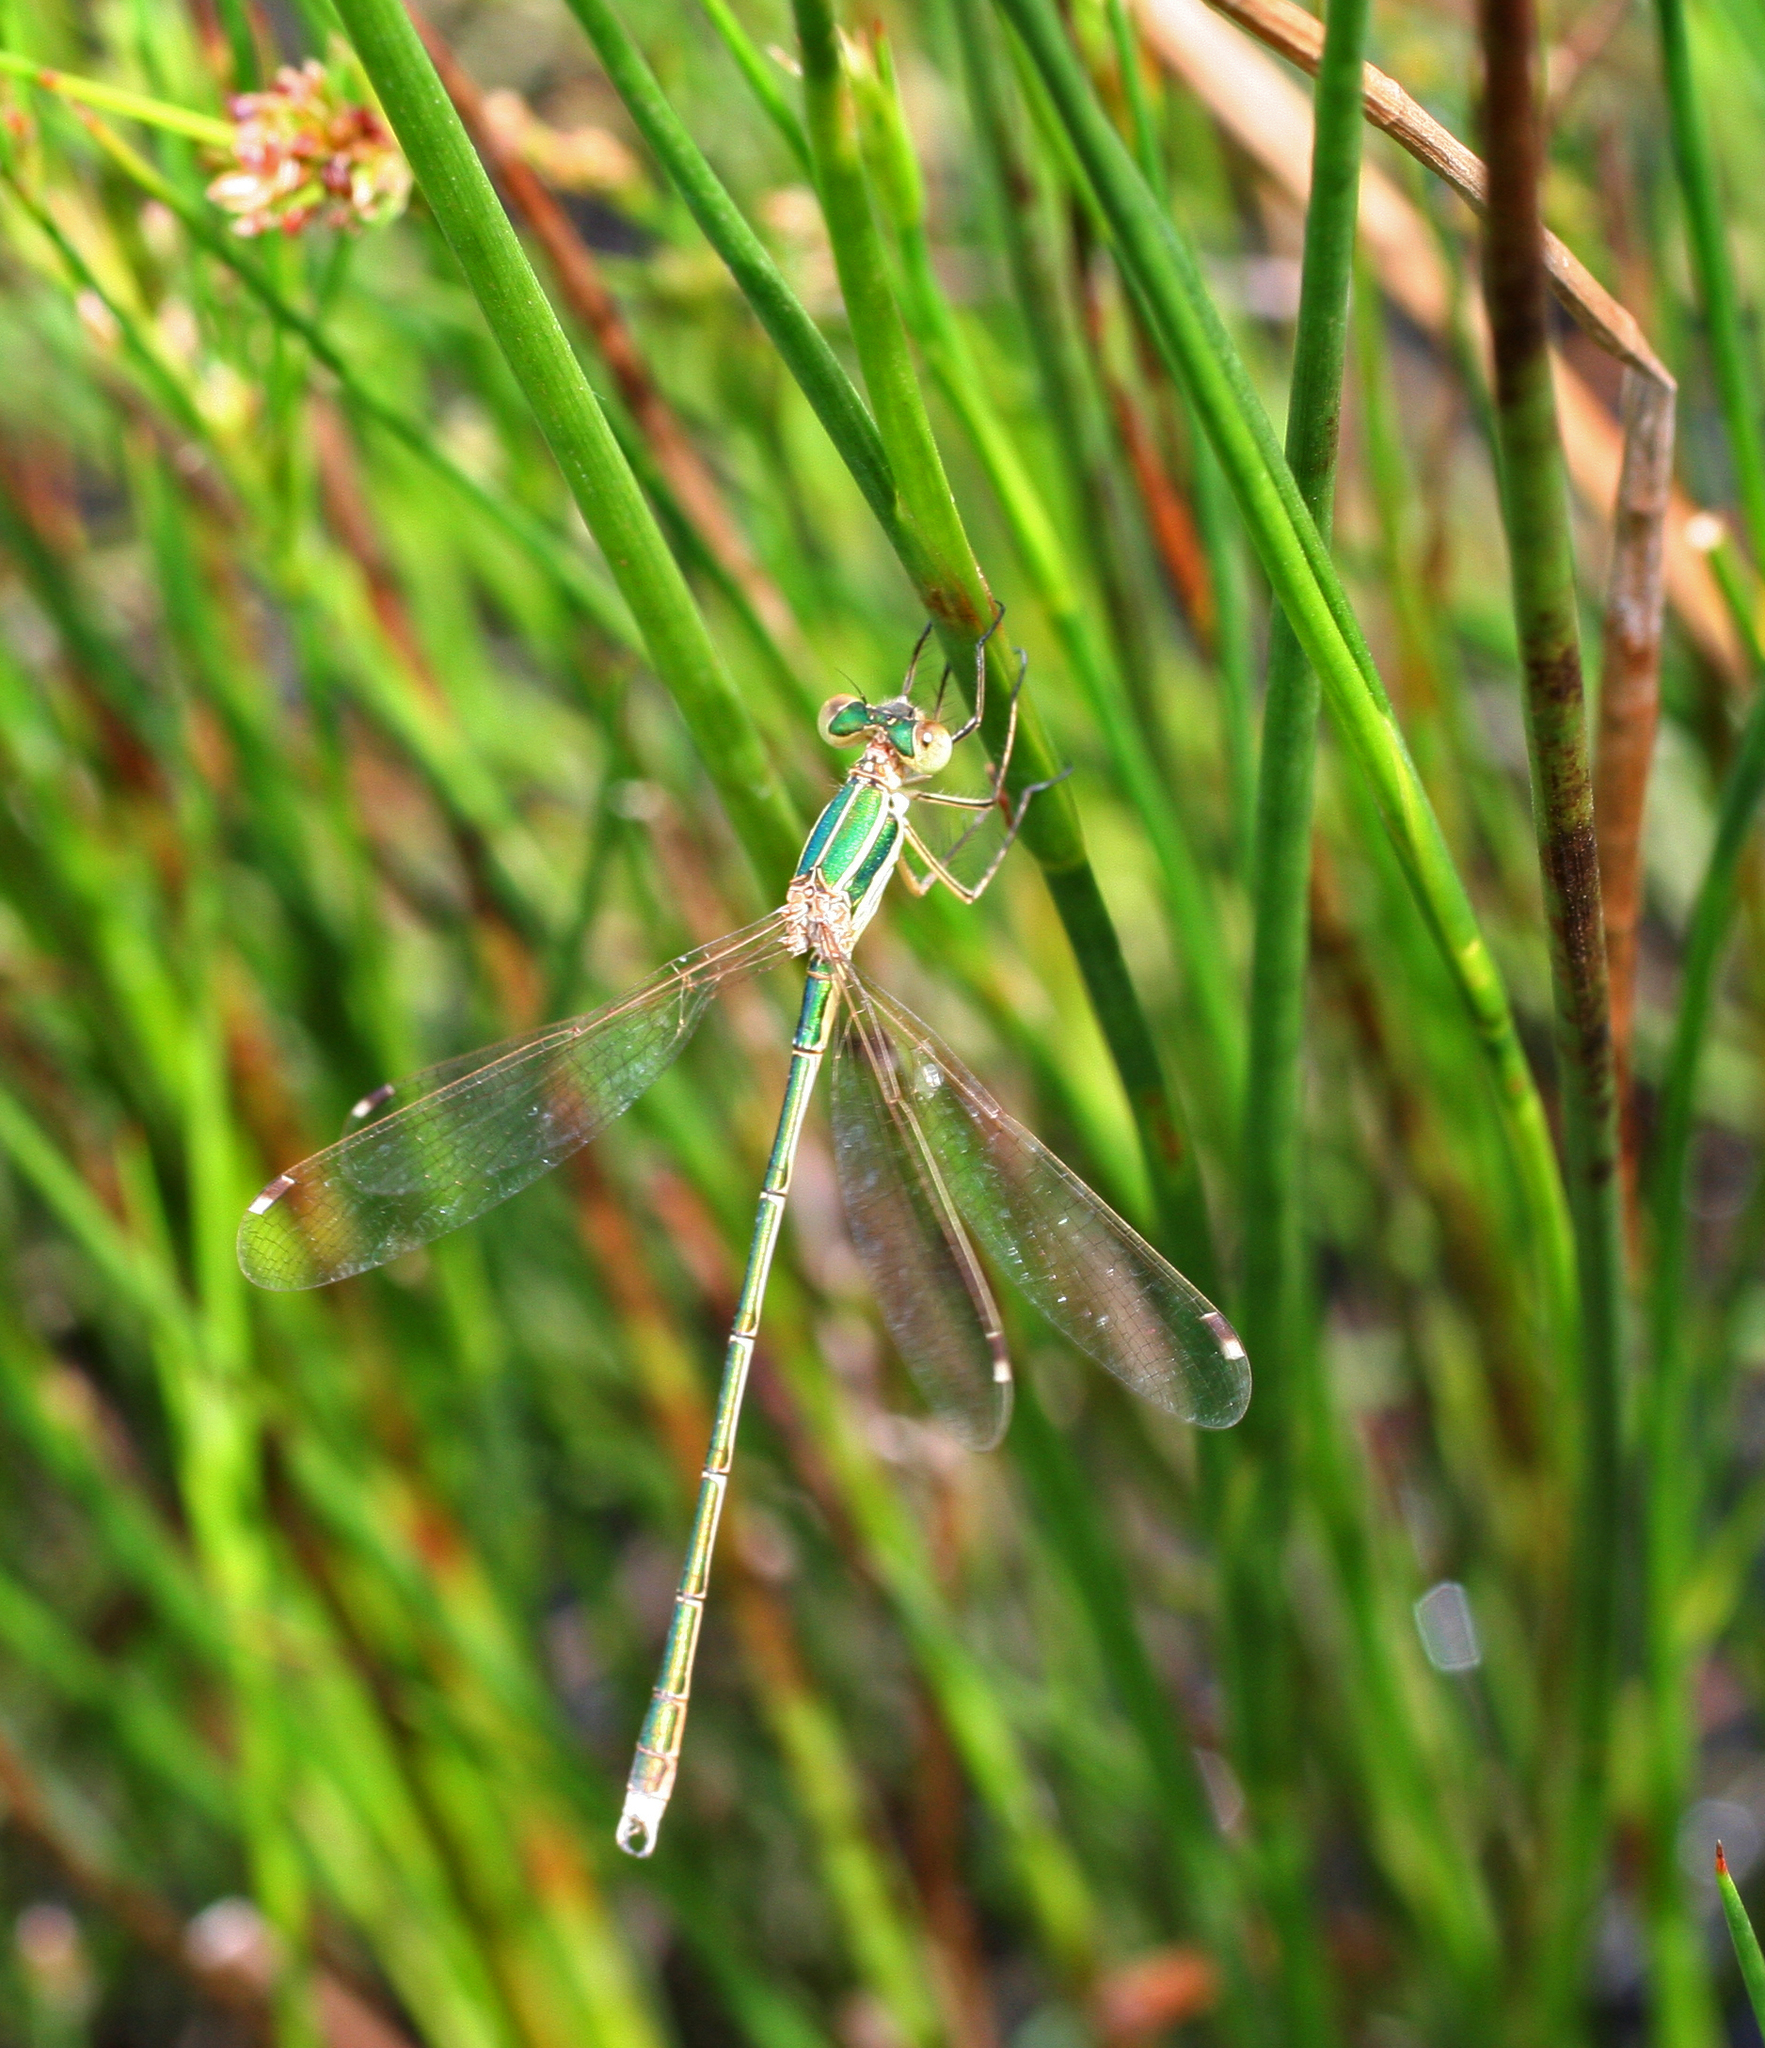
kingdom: Animalia
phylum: Arthropoda
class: Insecta
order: Odonata
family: Lestidae
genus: Lestes
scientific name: Lestes barbarus
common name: Migrant spreadwing
